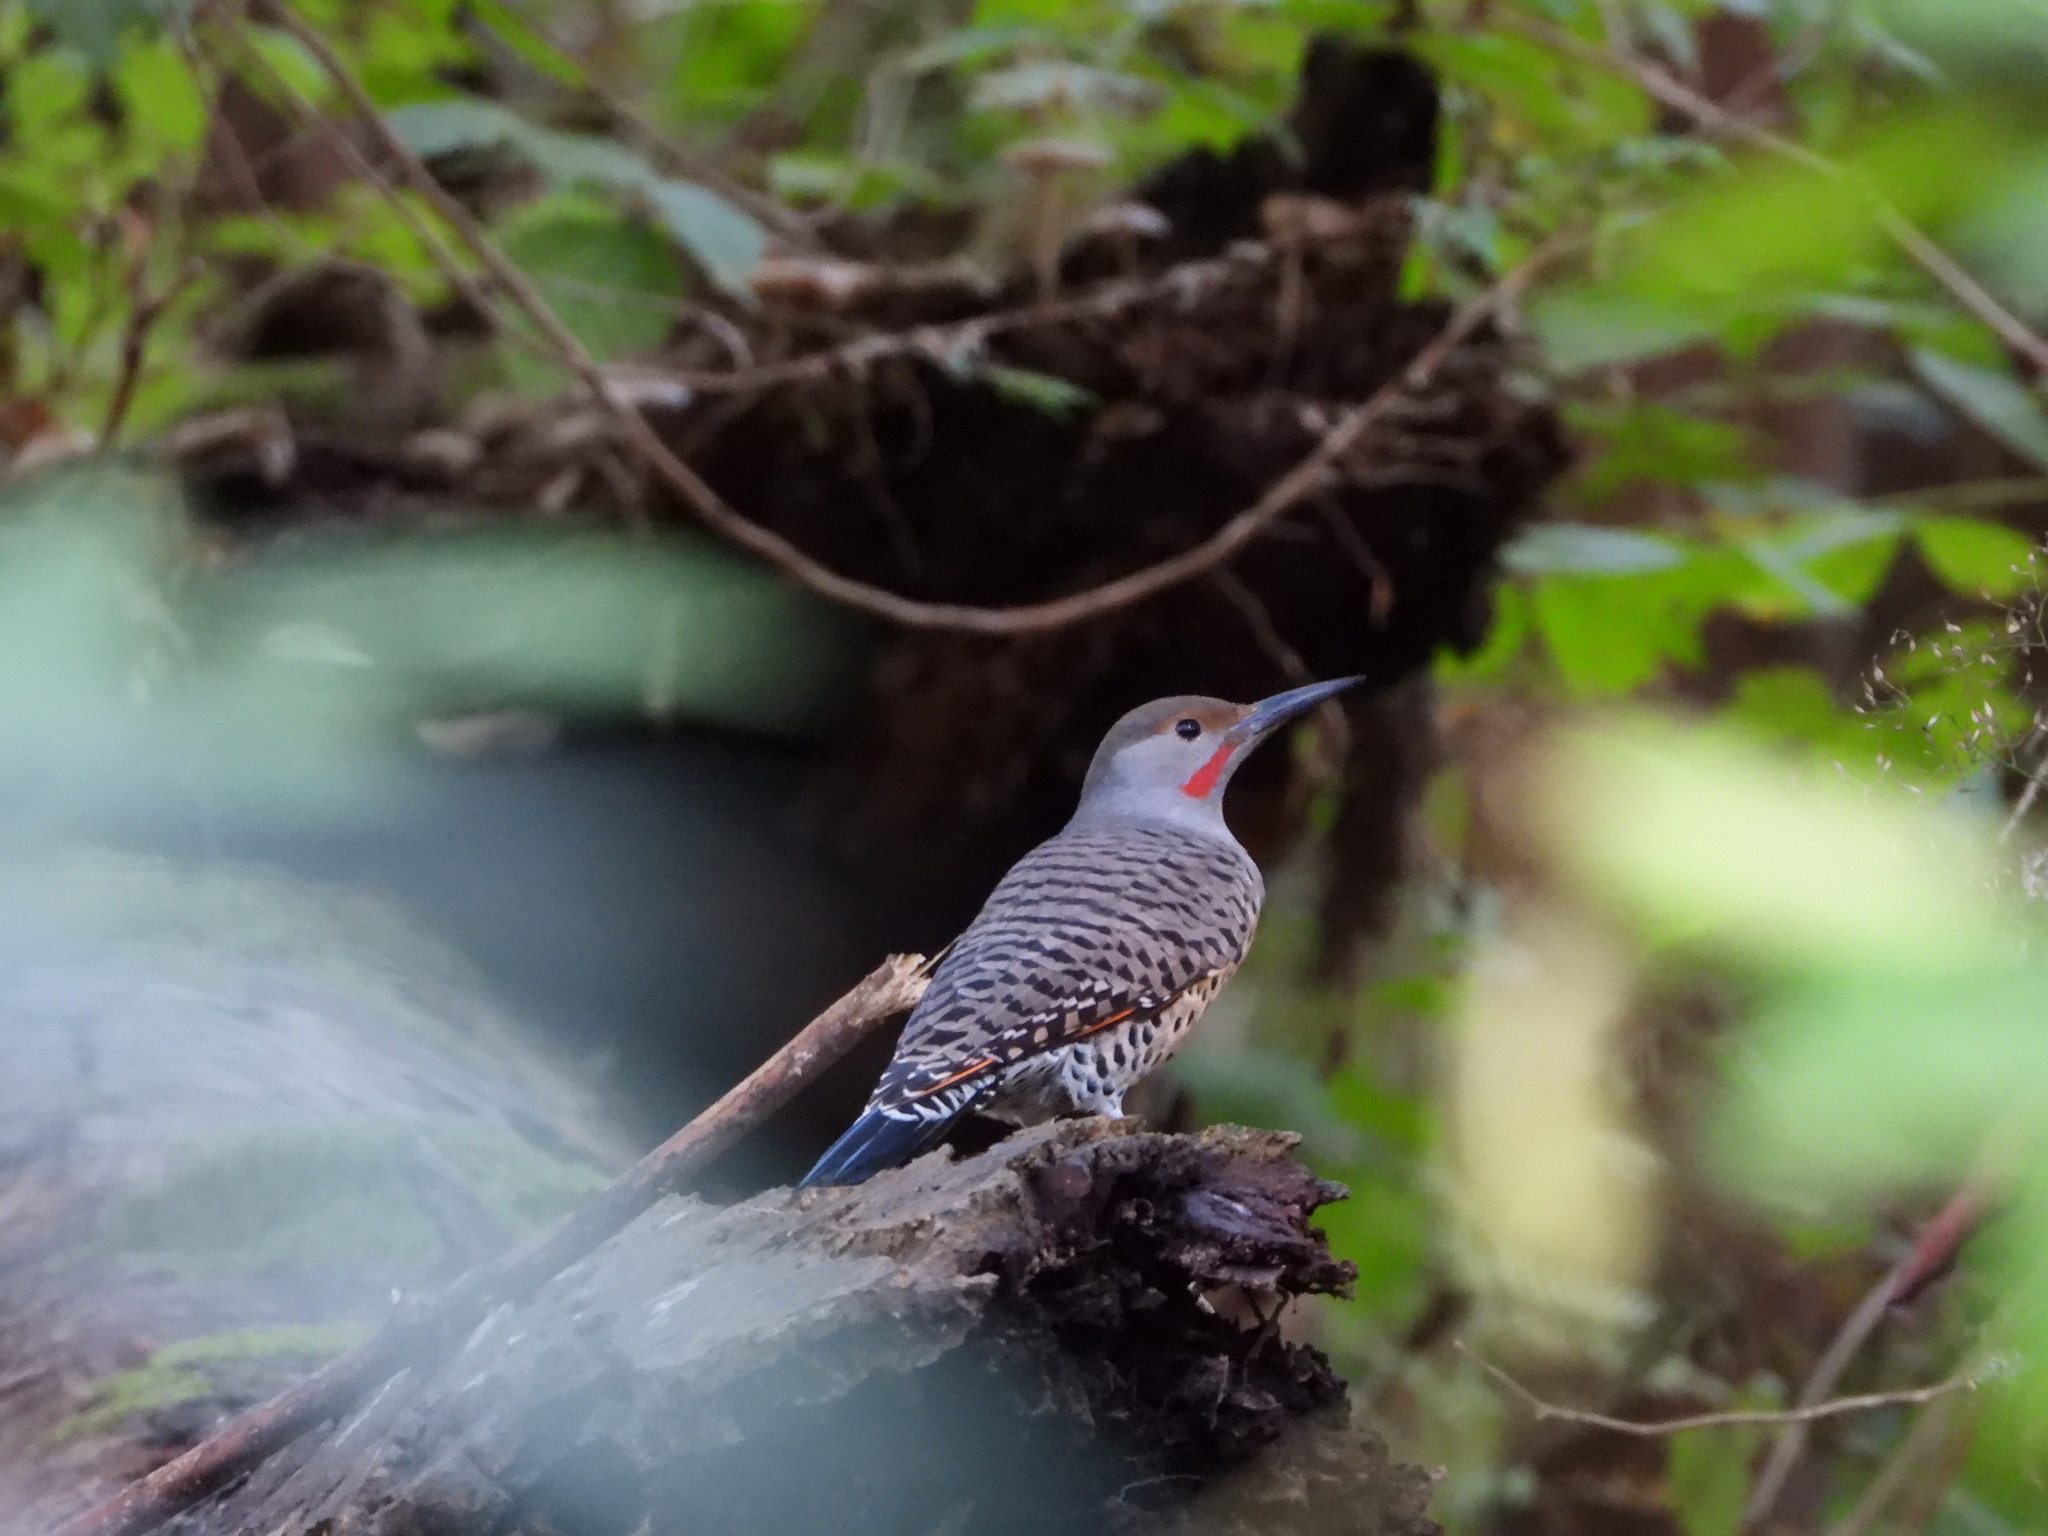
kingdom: Animalia
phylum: Chordata
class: Aves
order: Piciformes
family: Picidae
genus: Colaptes
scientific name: Colaptes auratus
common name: Northern flicker
